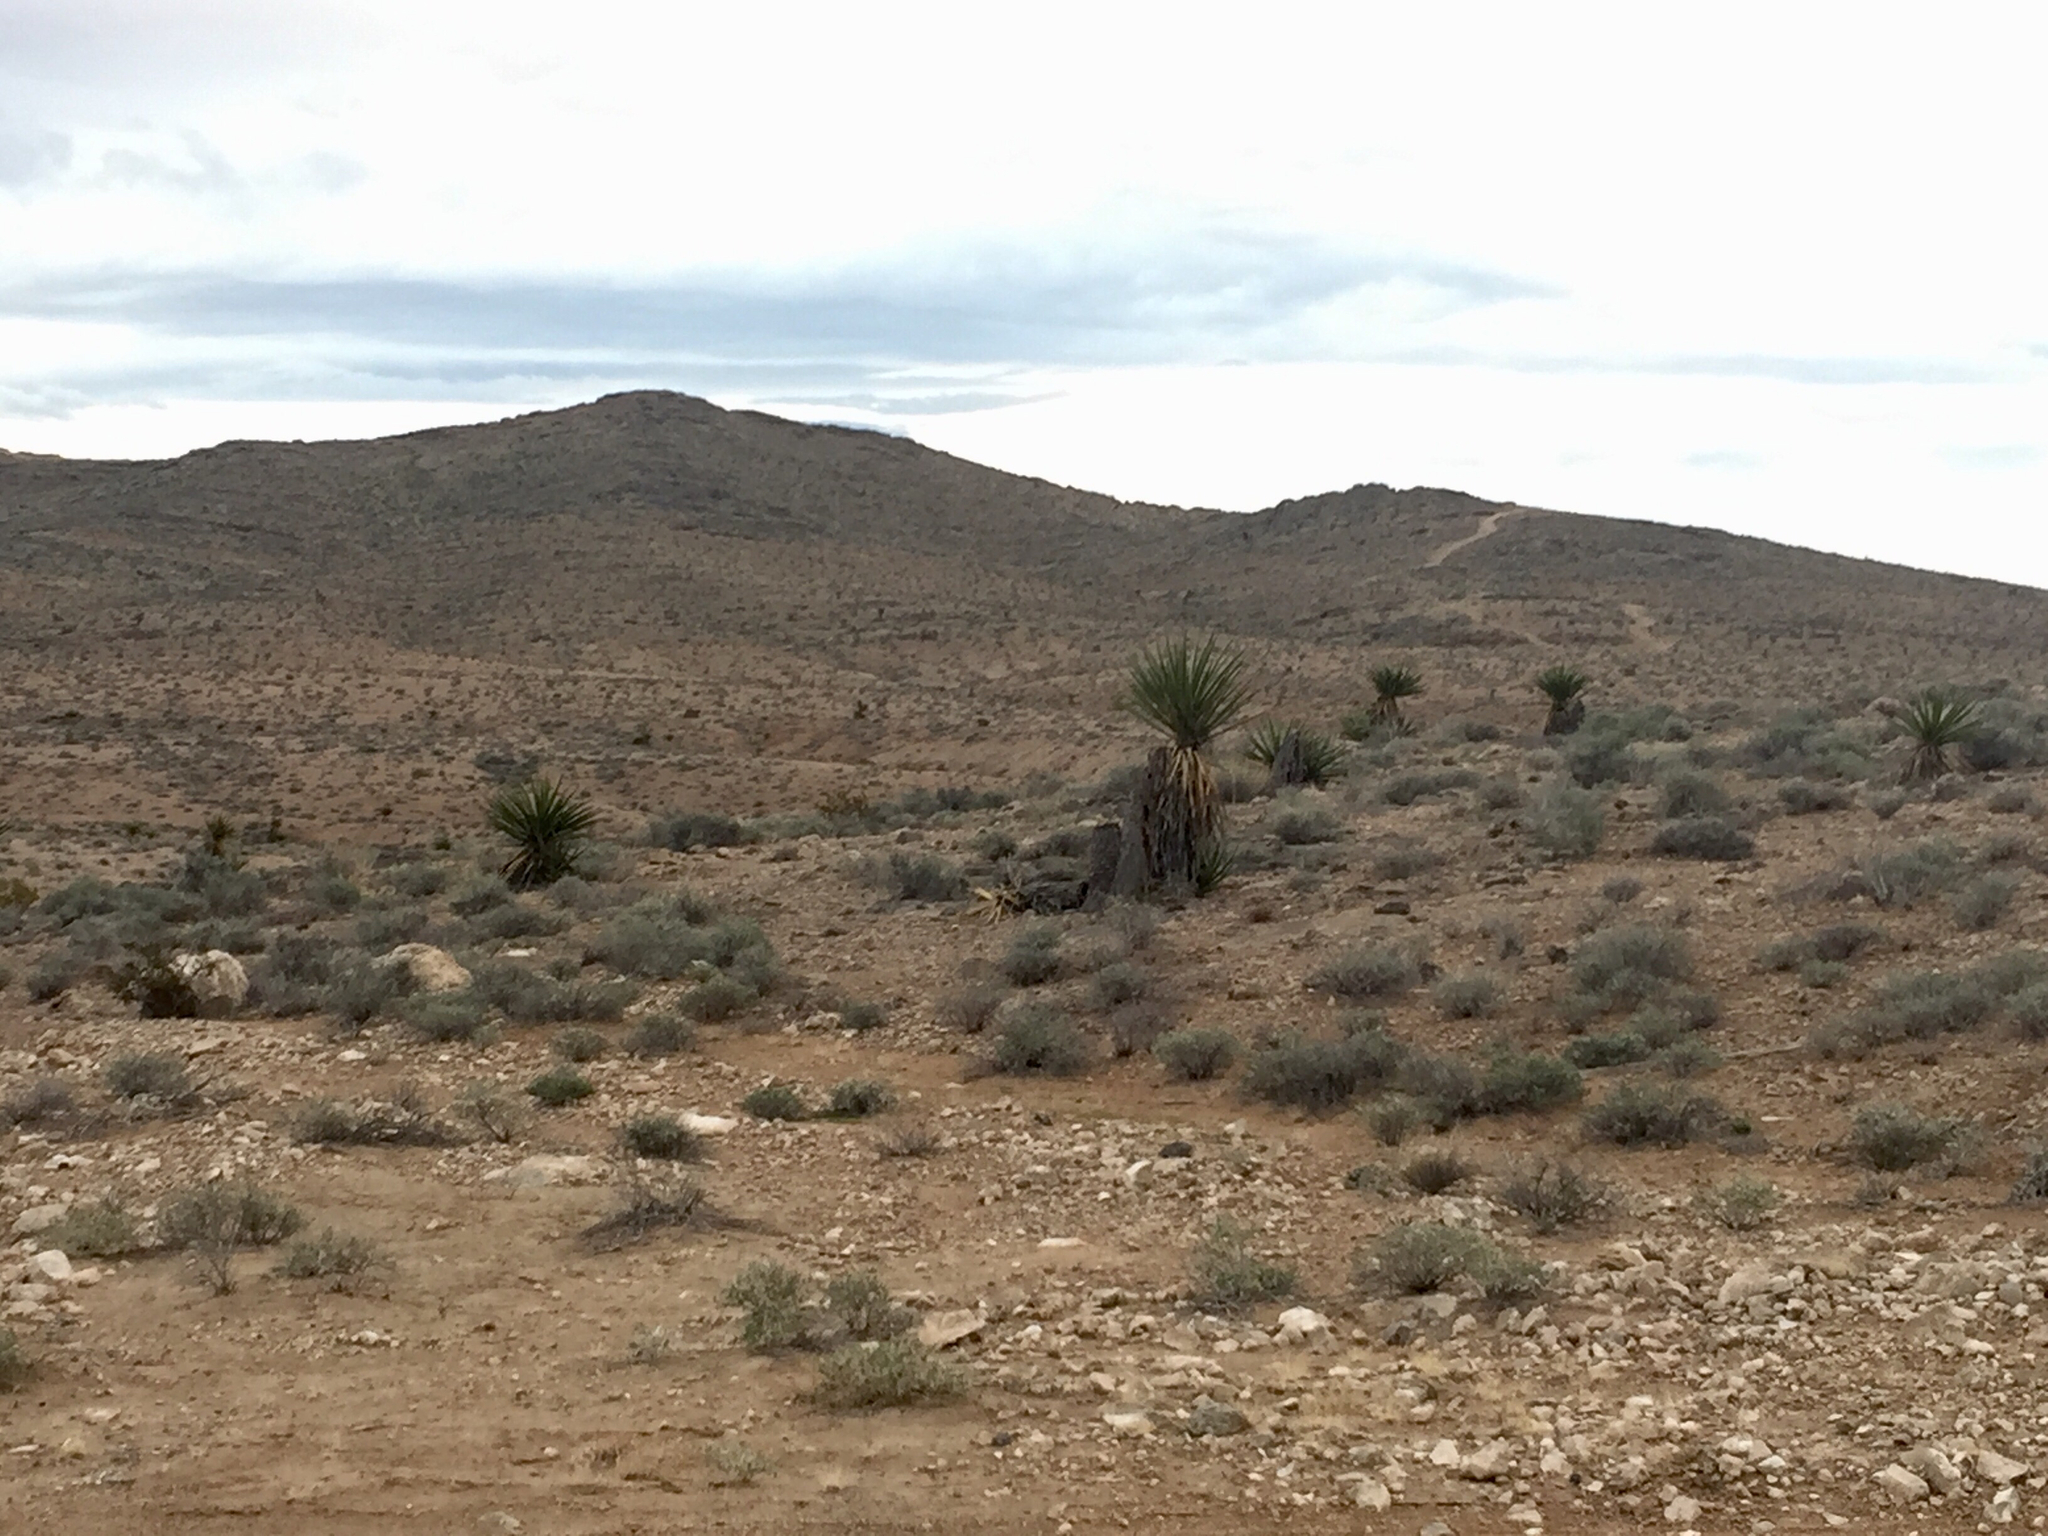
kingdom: Plantae
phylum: Tracheophyta
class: Liliopsida
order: Asparagales
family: Asparagaceae
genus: Yucca
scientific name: Yucca schidigera
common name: Mojave yucca
